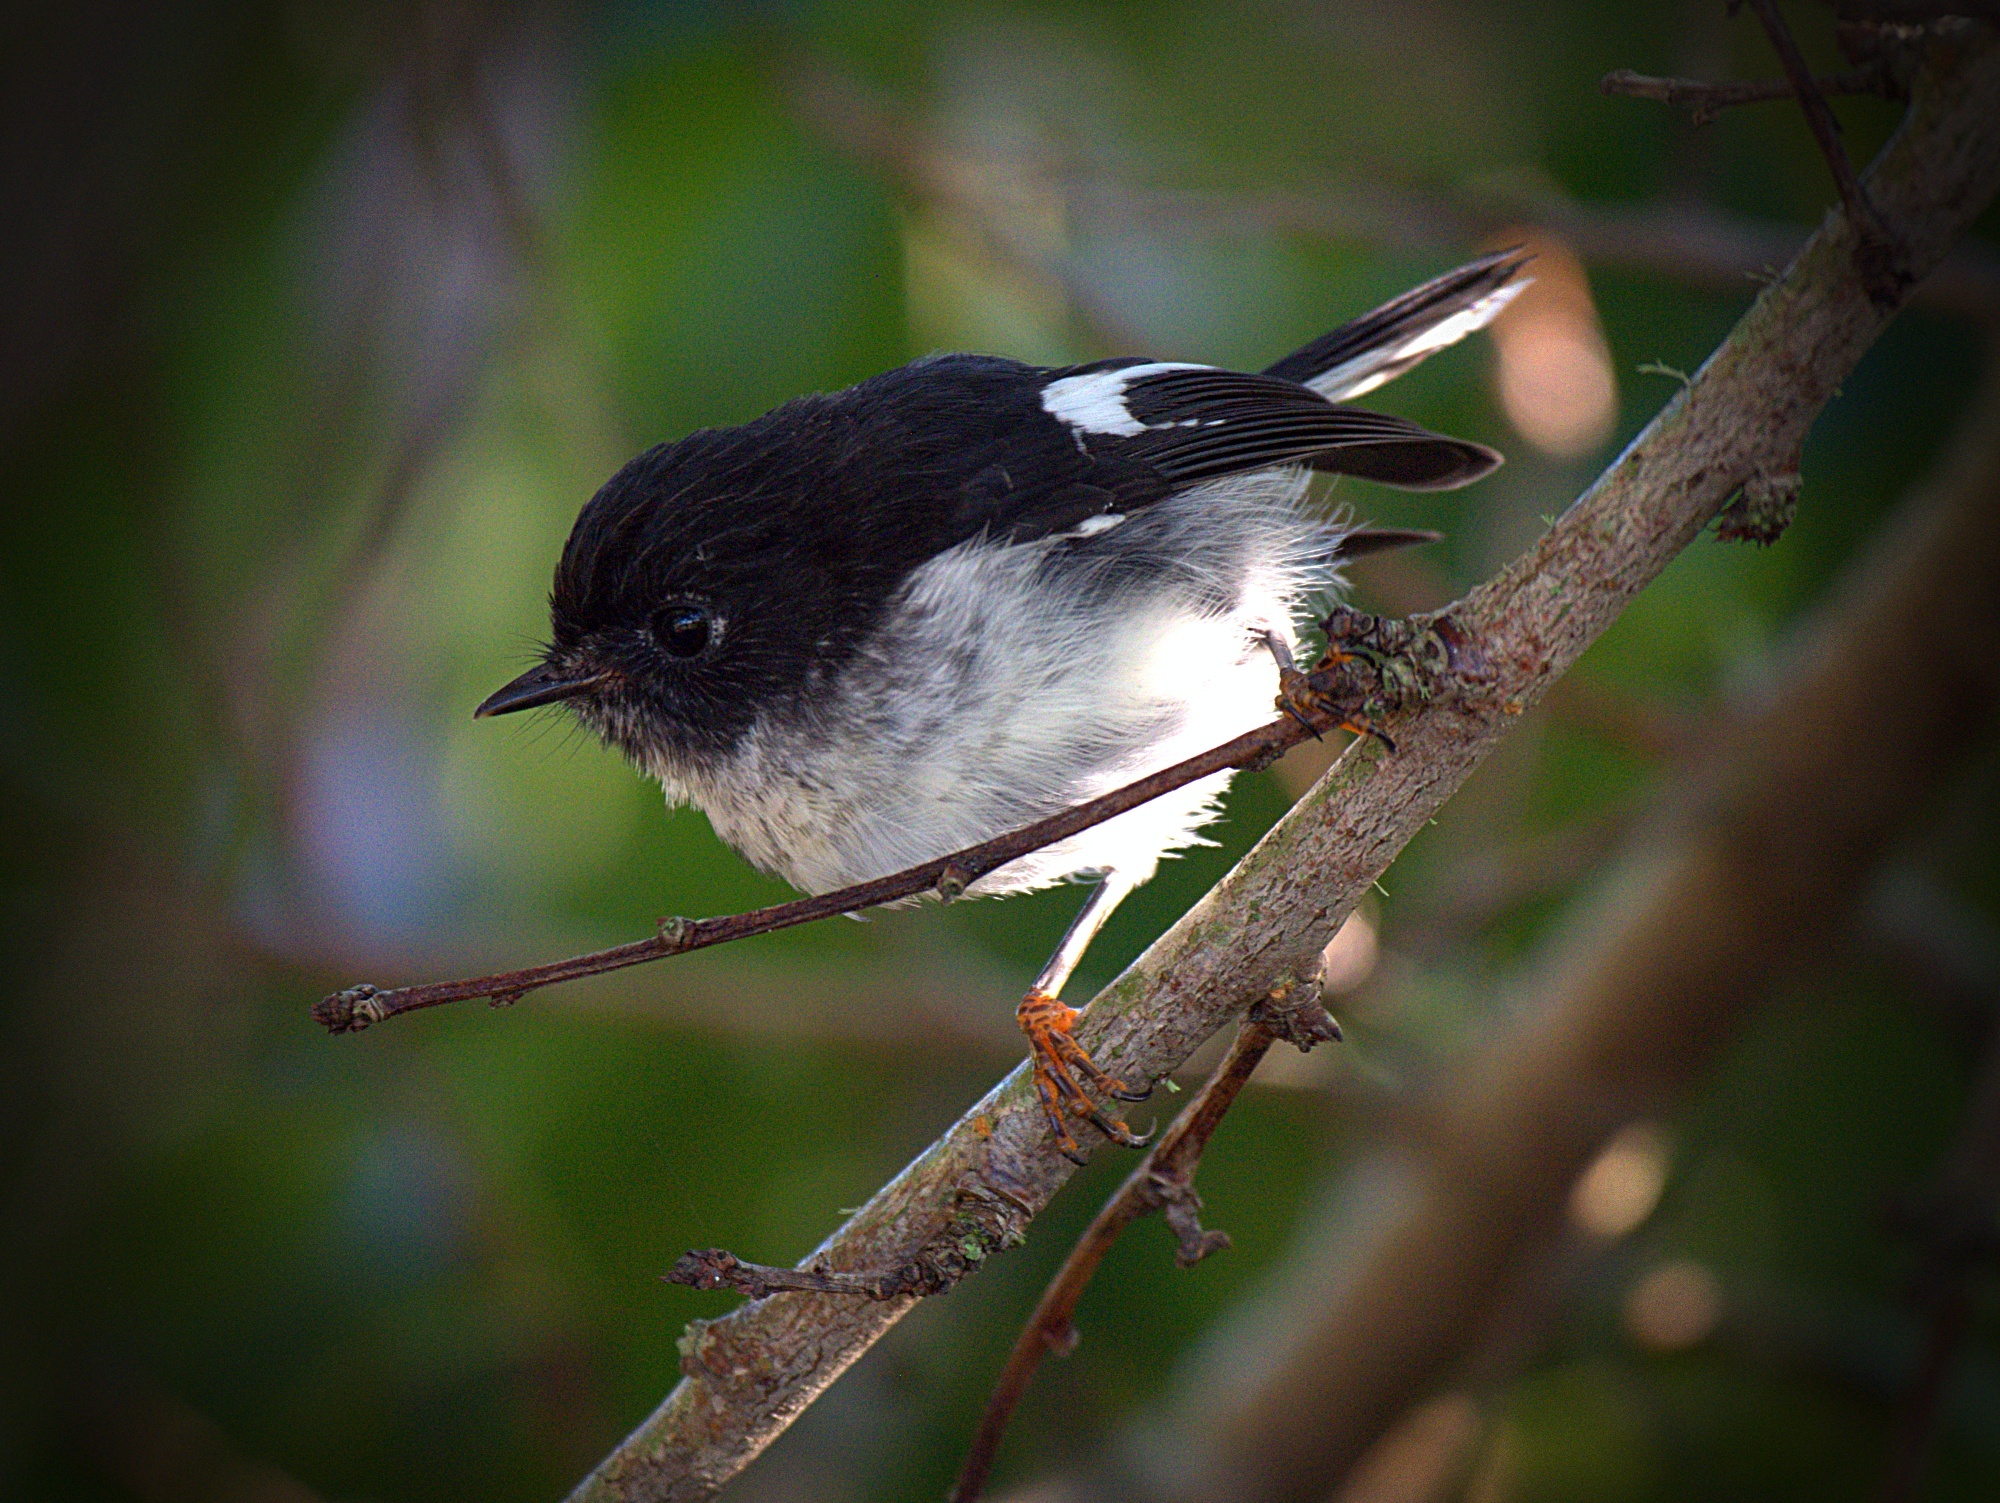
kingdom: Animalia
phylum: Chordata
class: Aves
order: Passeriformes
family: Petroicidae
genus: Petroica
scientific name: Petroica macrocephala
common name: Tomtit
